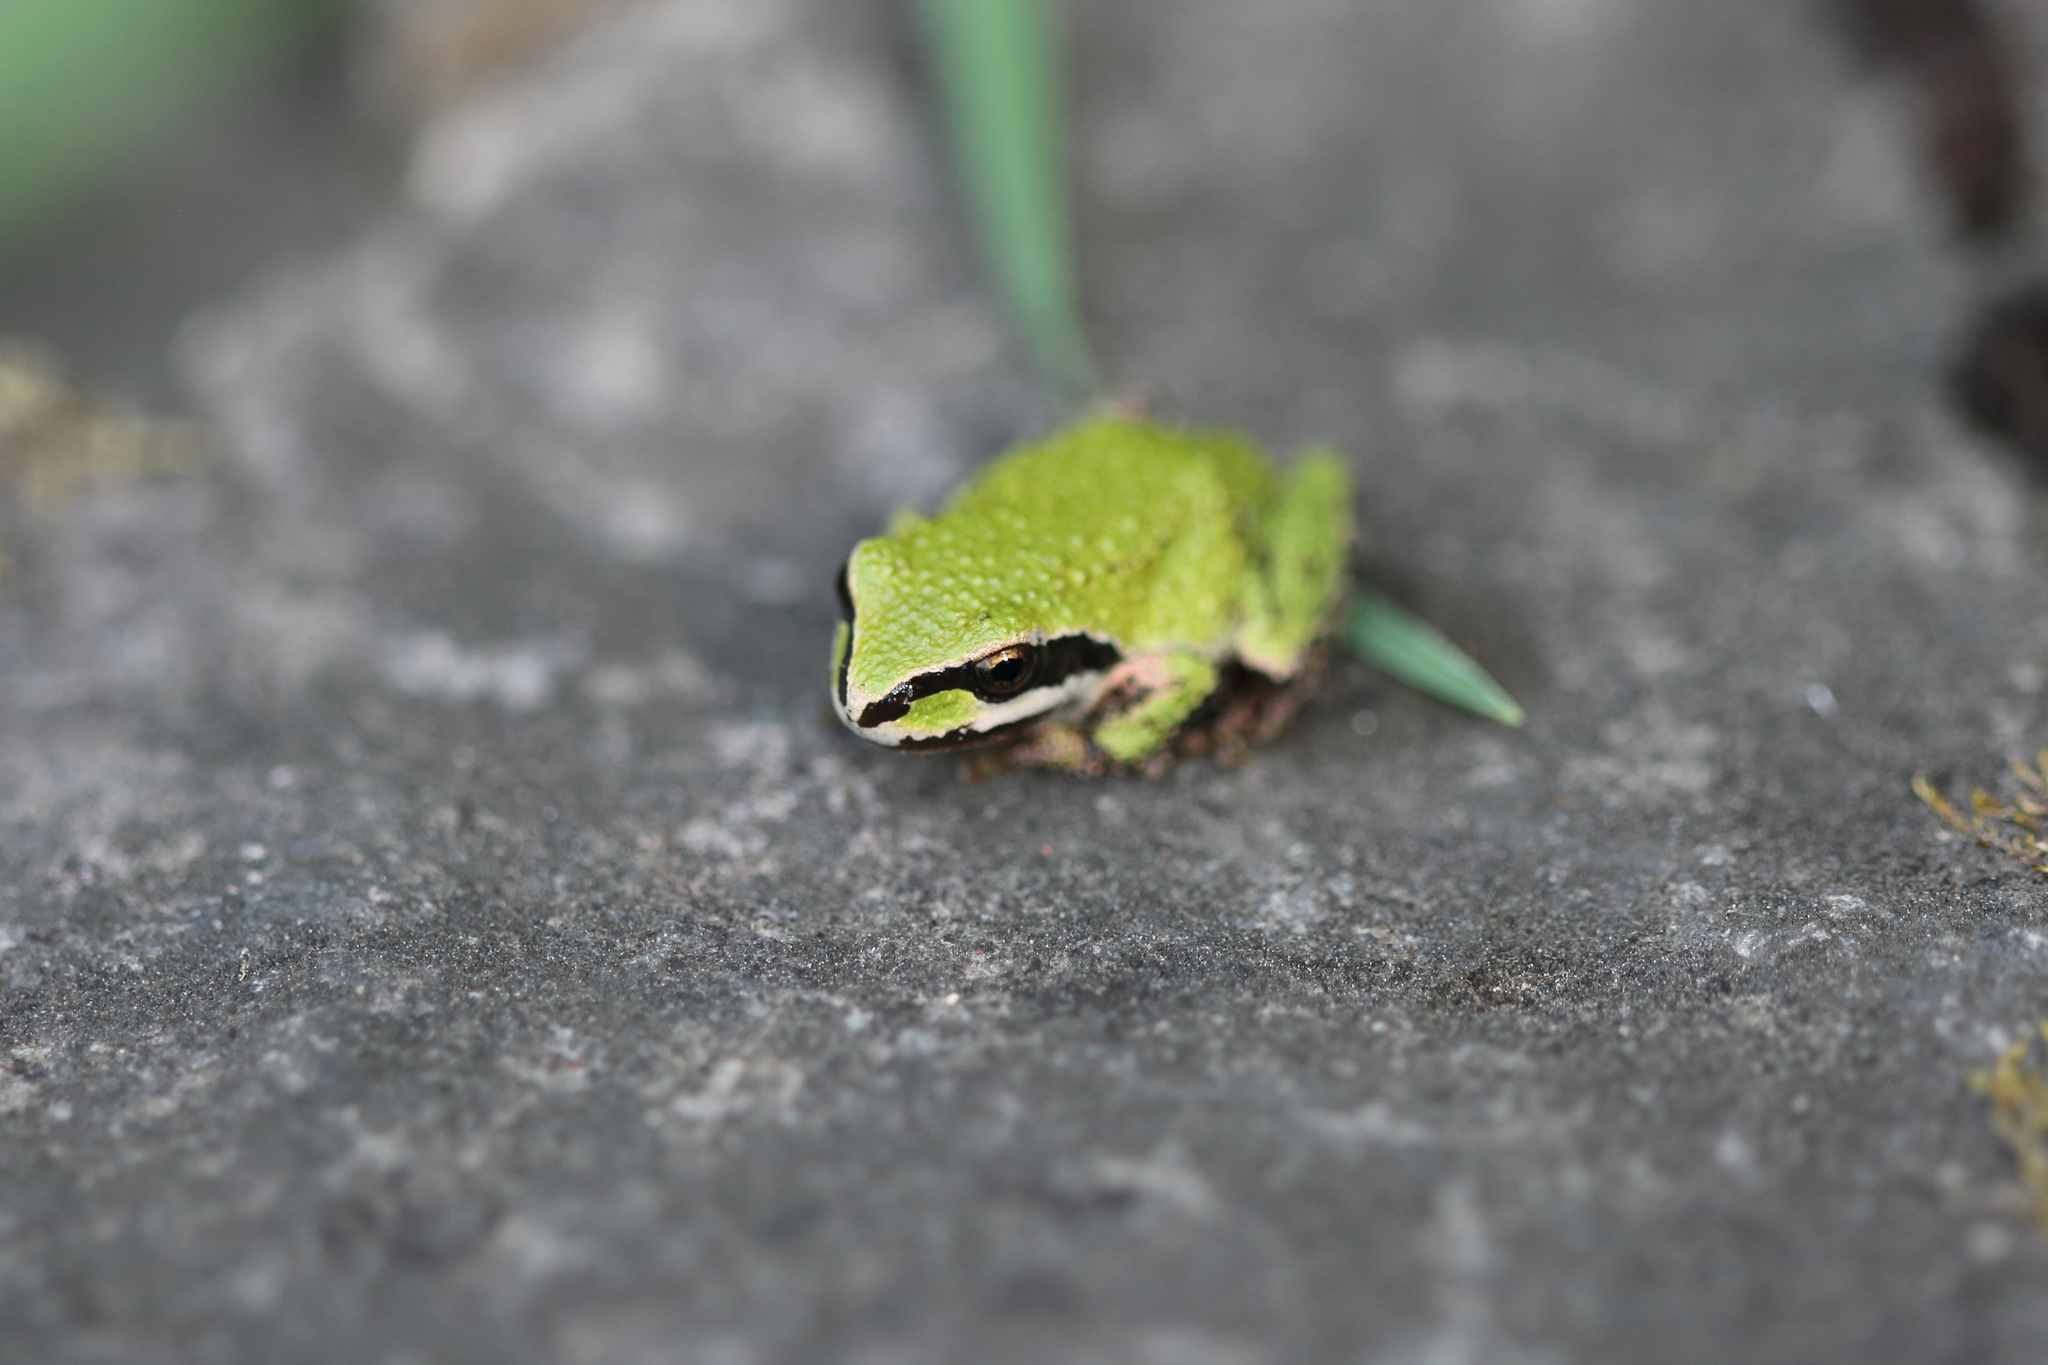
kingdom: Animalia
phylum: Chordata
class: Amphibia
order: Anura
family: Hylidae
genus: Pseudacris
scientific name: Pseudacris regilla
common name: Pacific chorus frog
